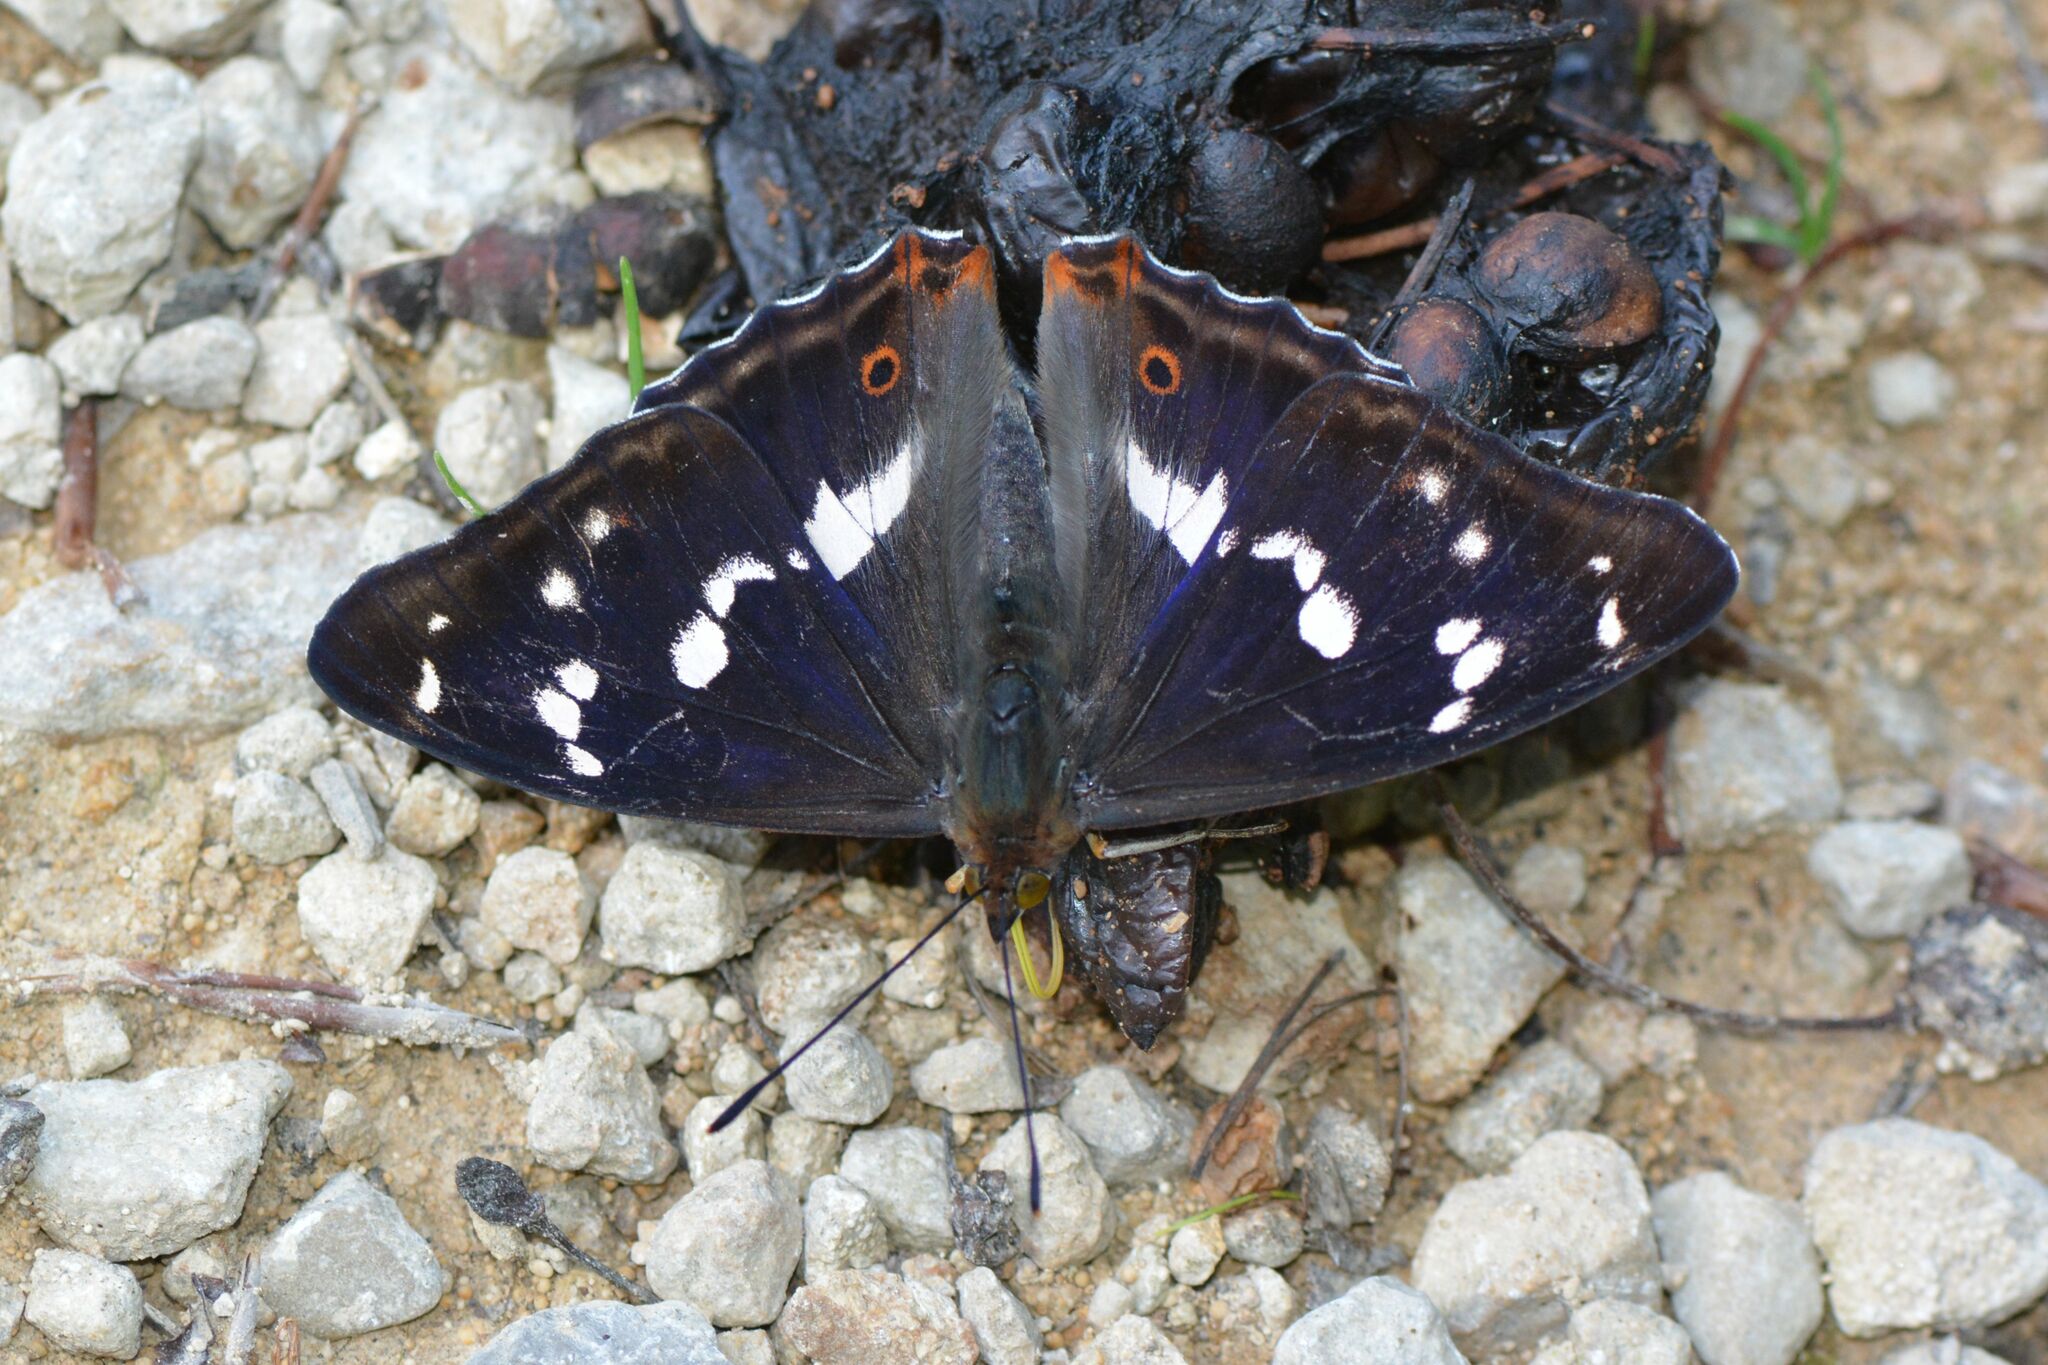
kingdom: Animalia
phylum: Arthropoda
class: Insecta
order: Lepidoptera
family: Nymphalidae
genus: Apatura
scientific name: Apatura iris
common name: Purple emperor
